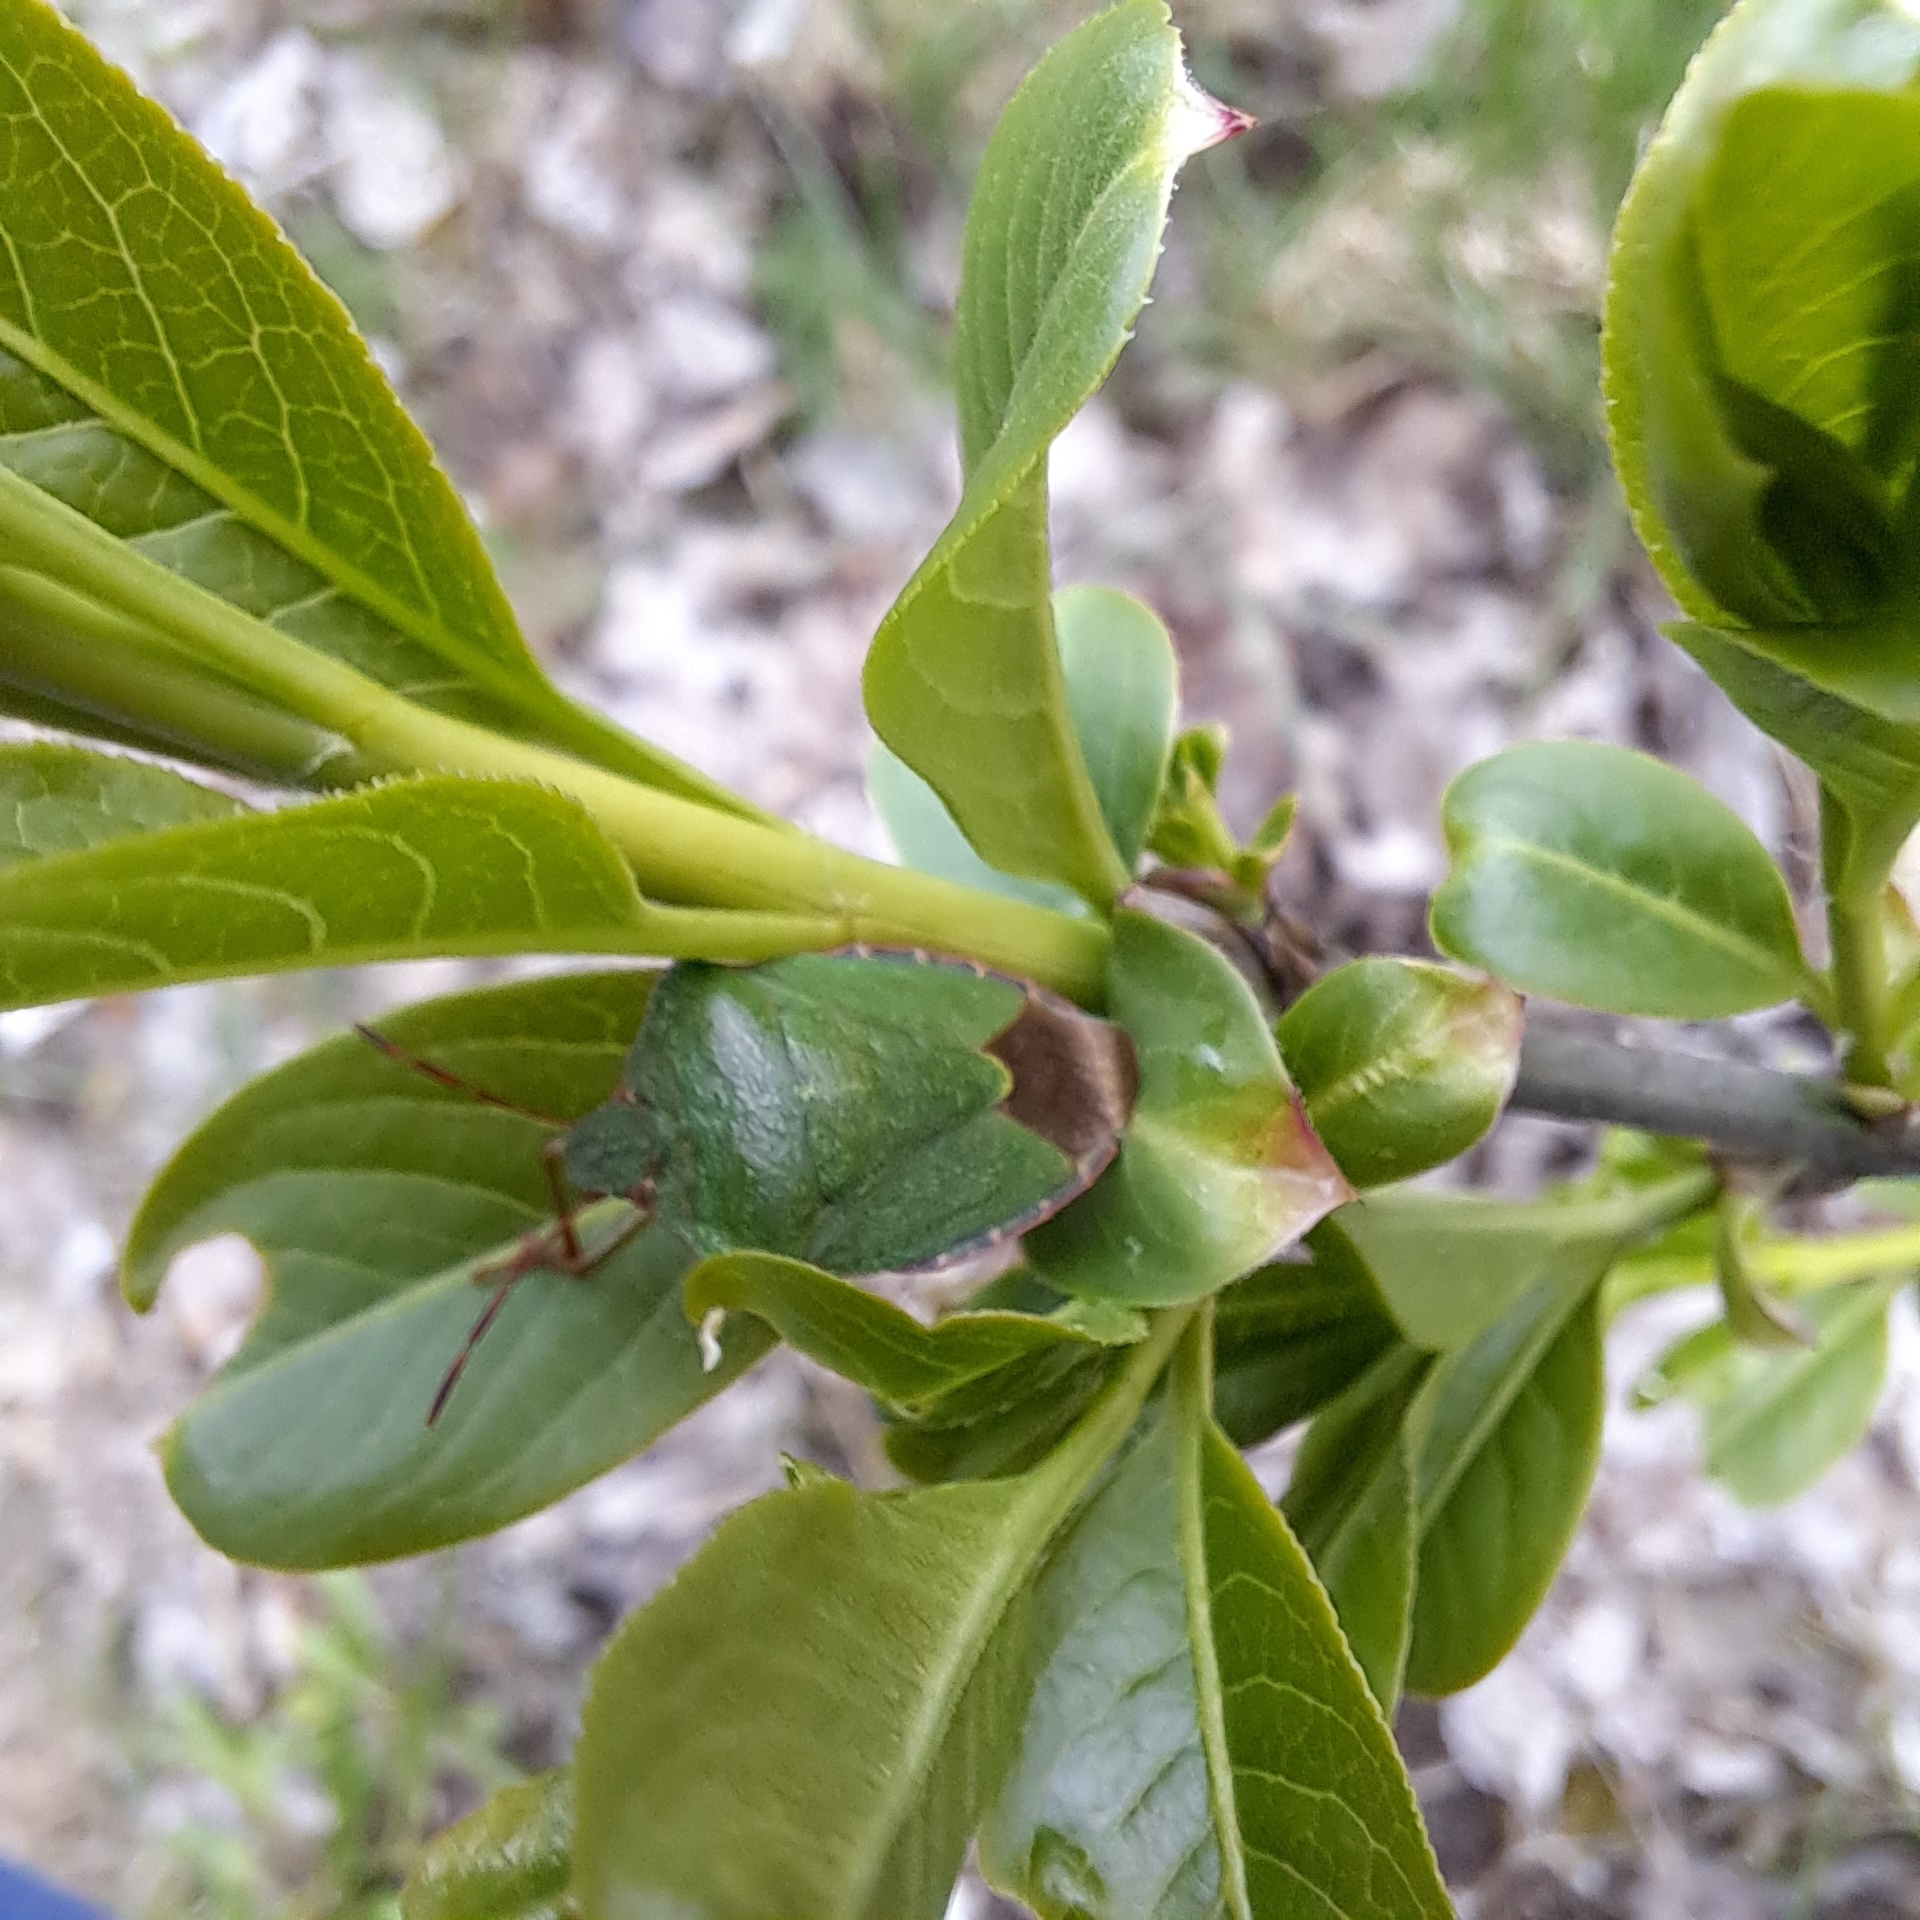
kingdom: Animalia
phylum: Arthropoda
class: Insecta
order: Hemiptera
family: Pentatomidae
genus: Palomena
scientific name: Palomena prasina
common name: Green shieldbug
